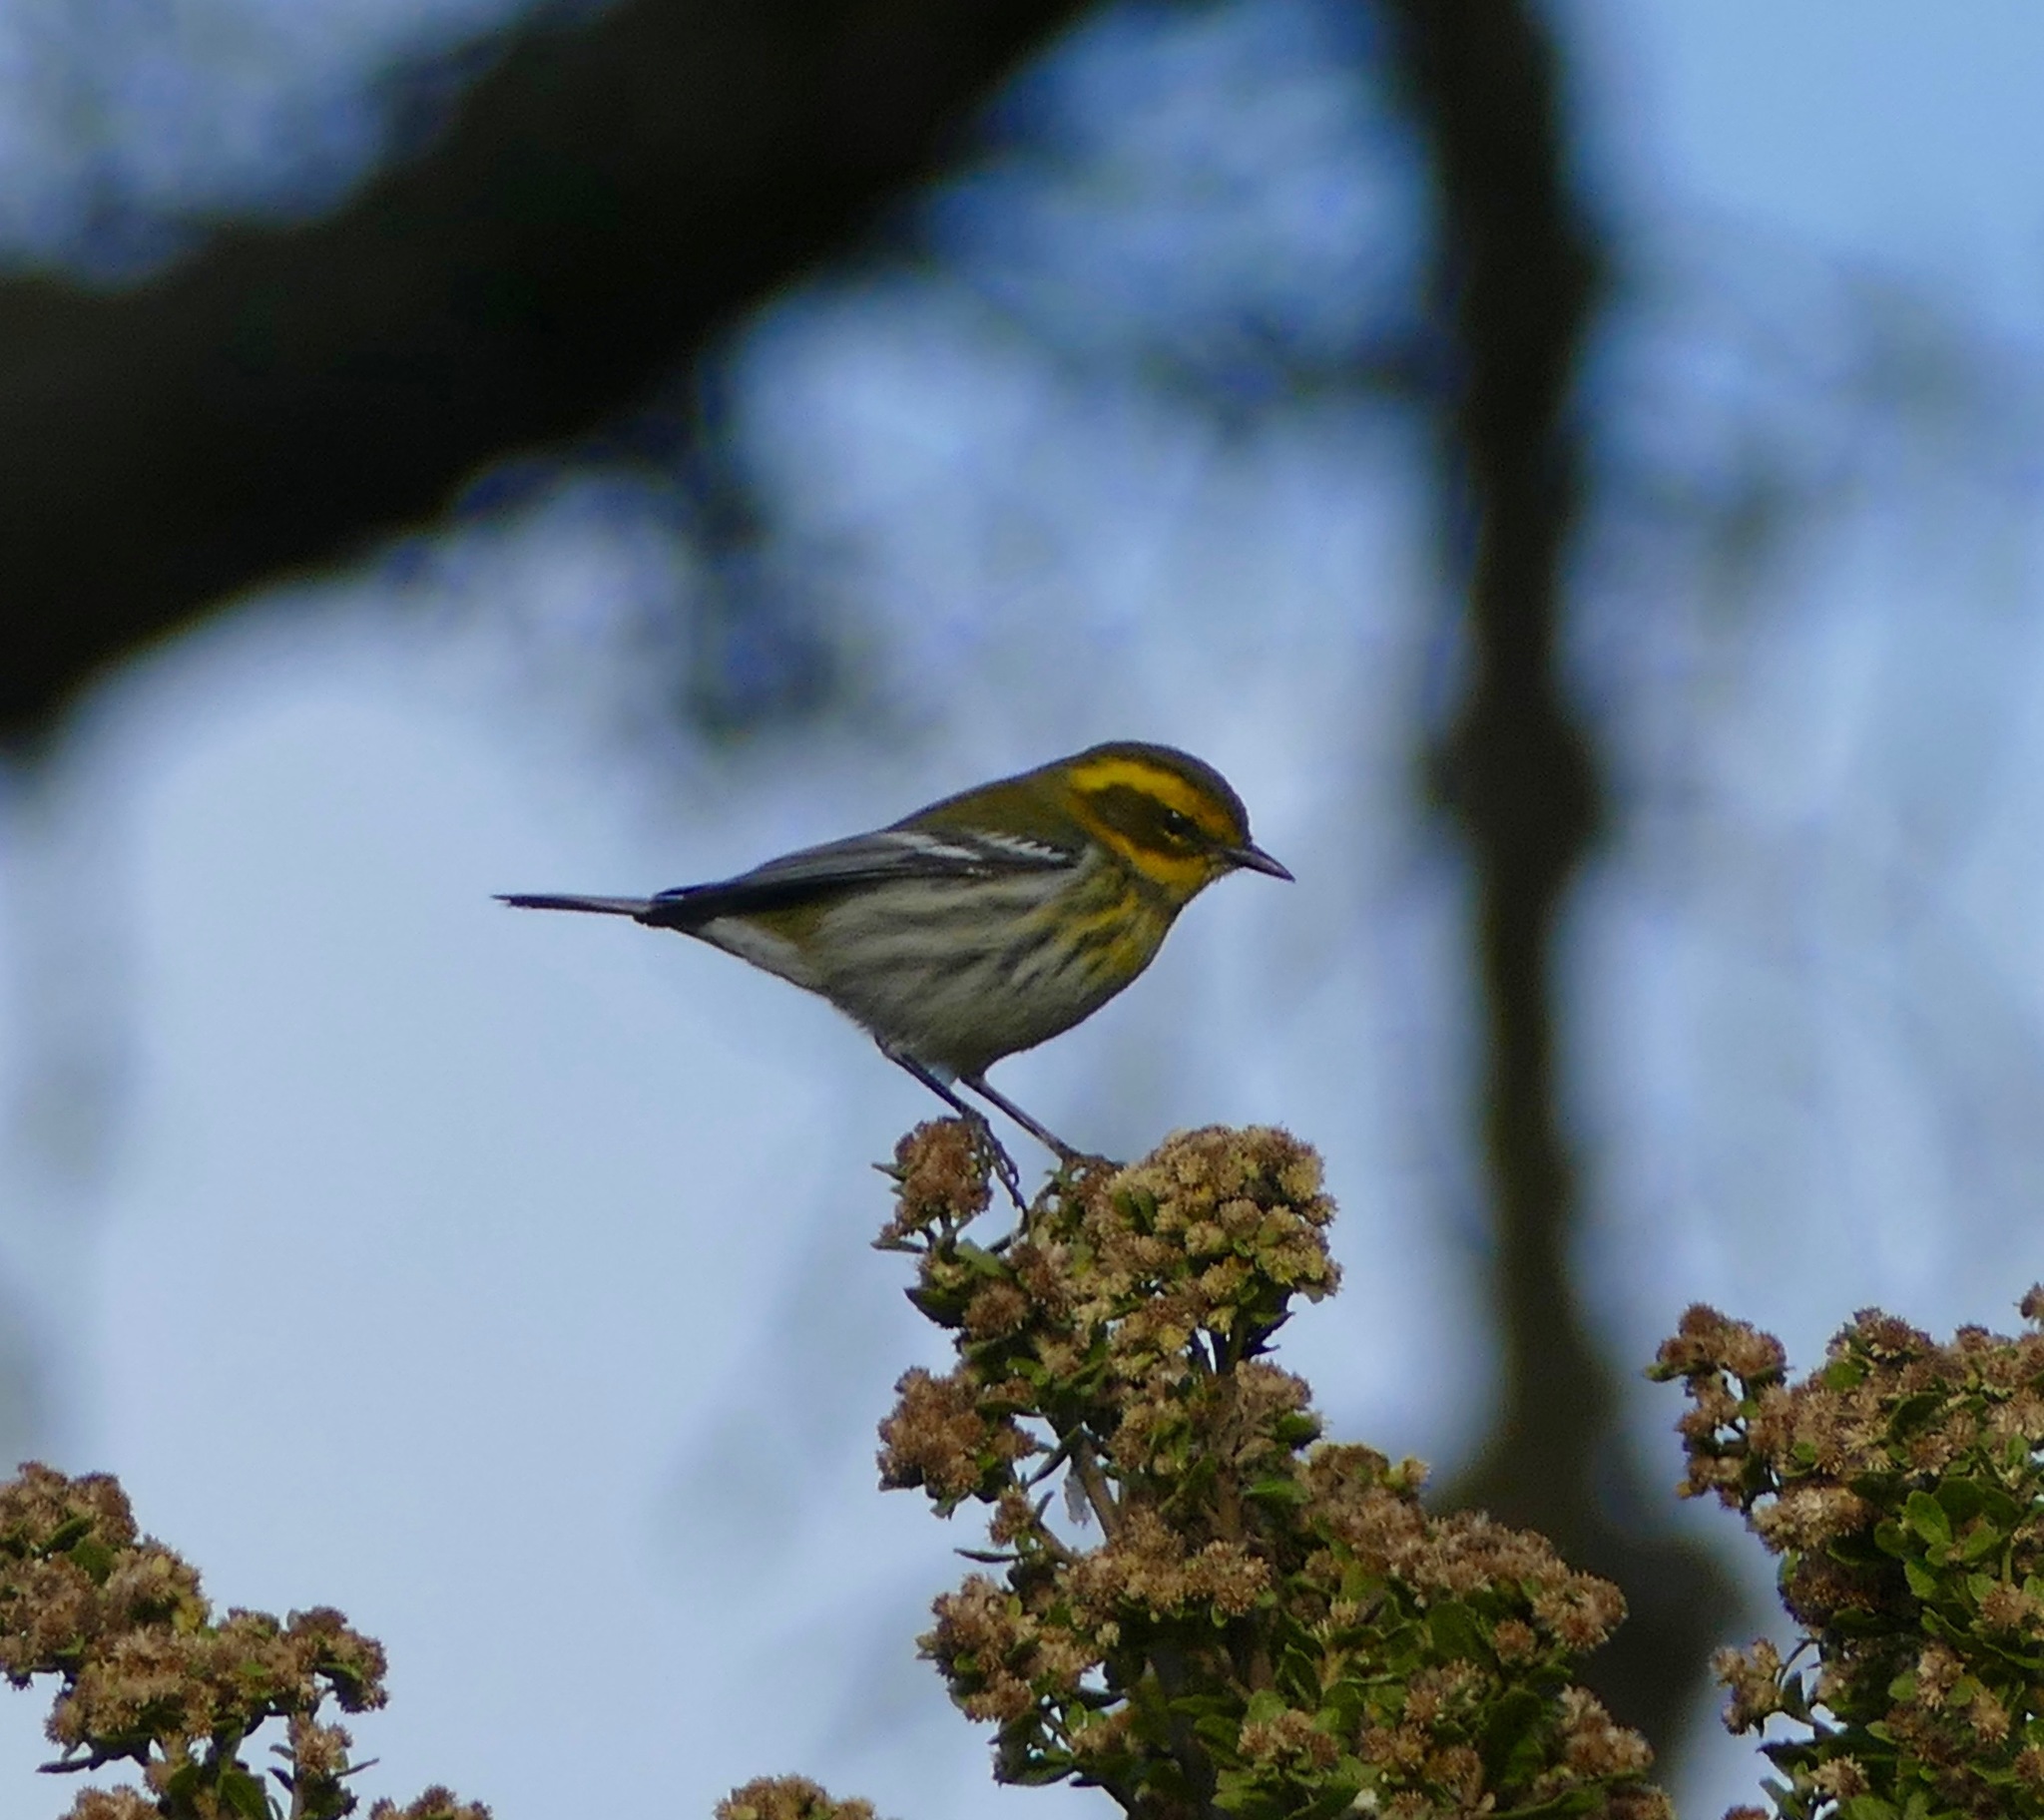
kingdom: Animalia
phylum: Chordata
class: Aves
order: Passeriformes
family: Parulidae
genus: Setophaga
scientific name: Setophaga townsendi
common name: Townsend's warbler
